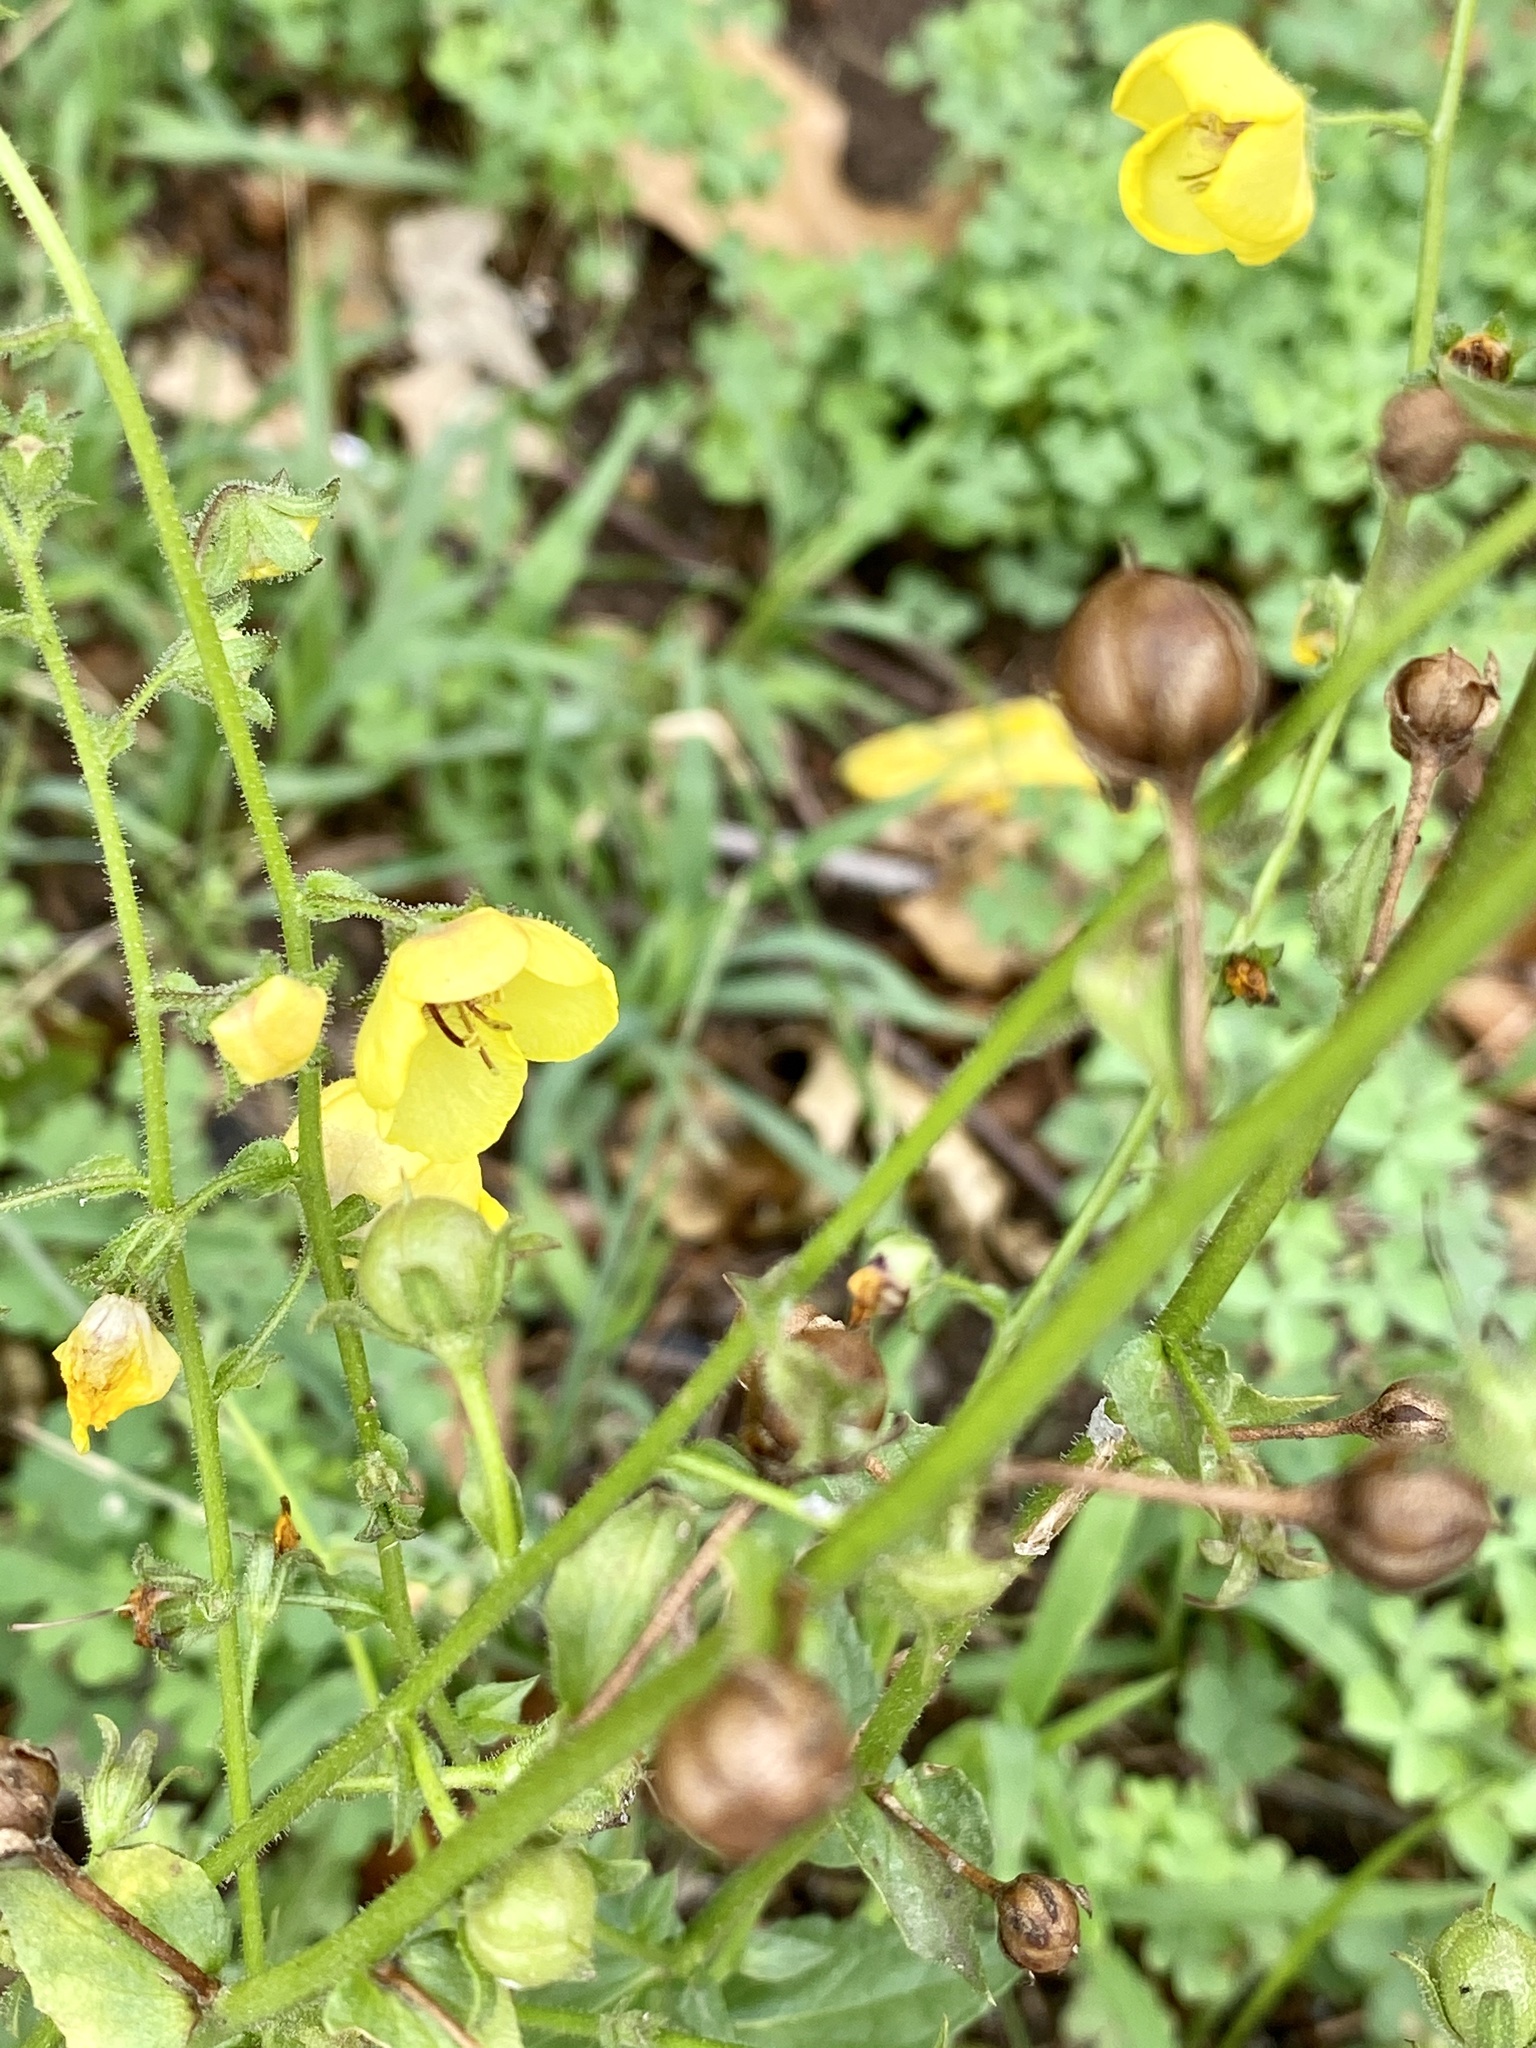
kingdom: Plantae
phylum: Tracheophyta
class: Magnoliopsida
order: Lamiales
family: Scrophulariaceae
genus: Verbascum
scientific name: Verbascum blattaria
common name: Moth mullein
